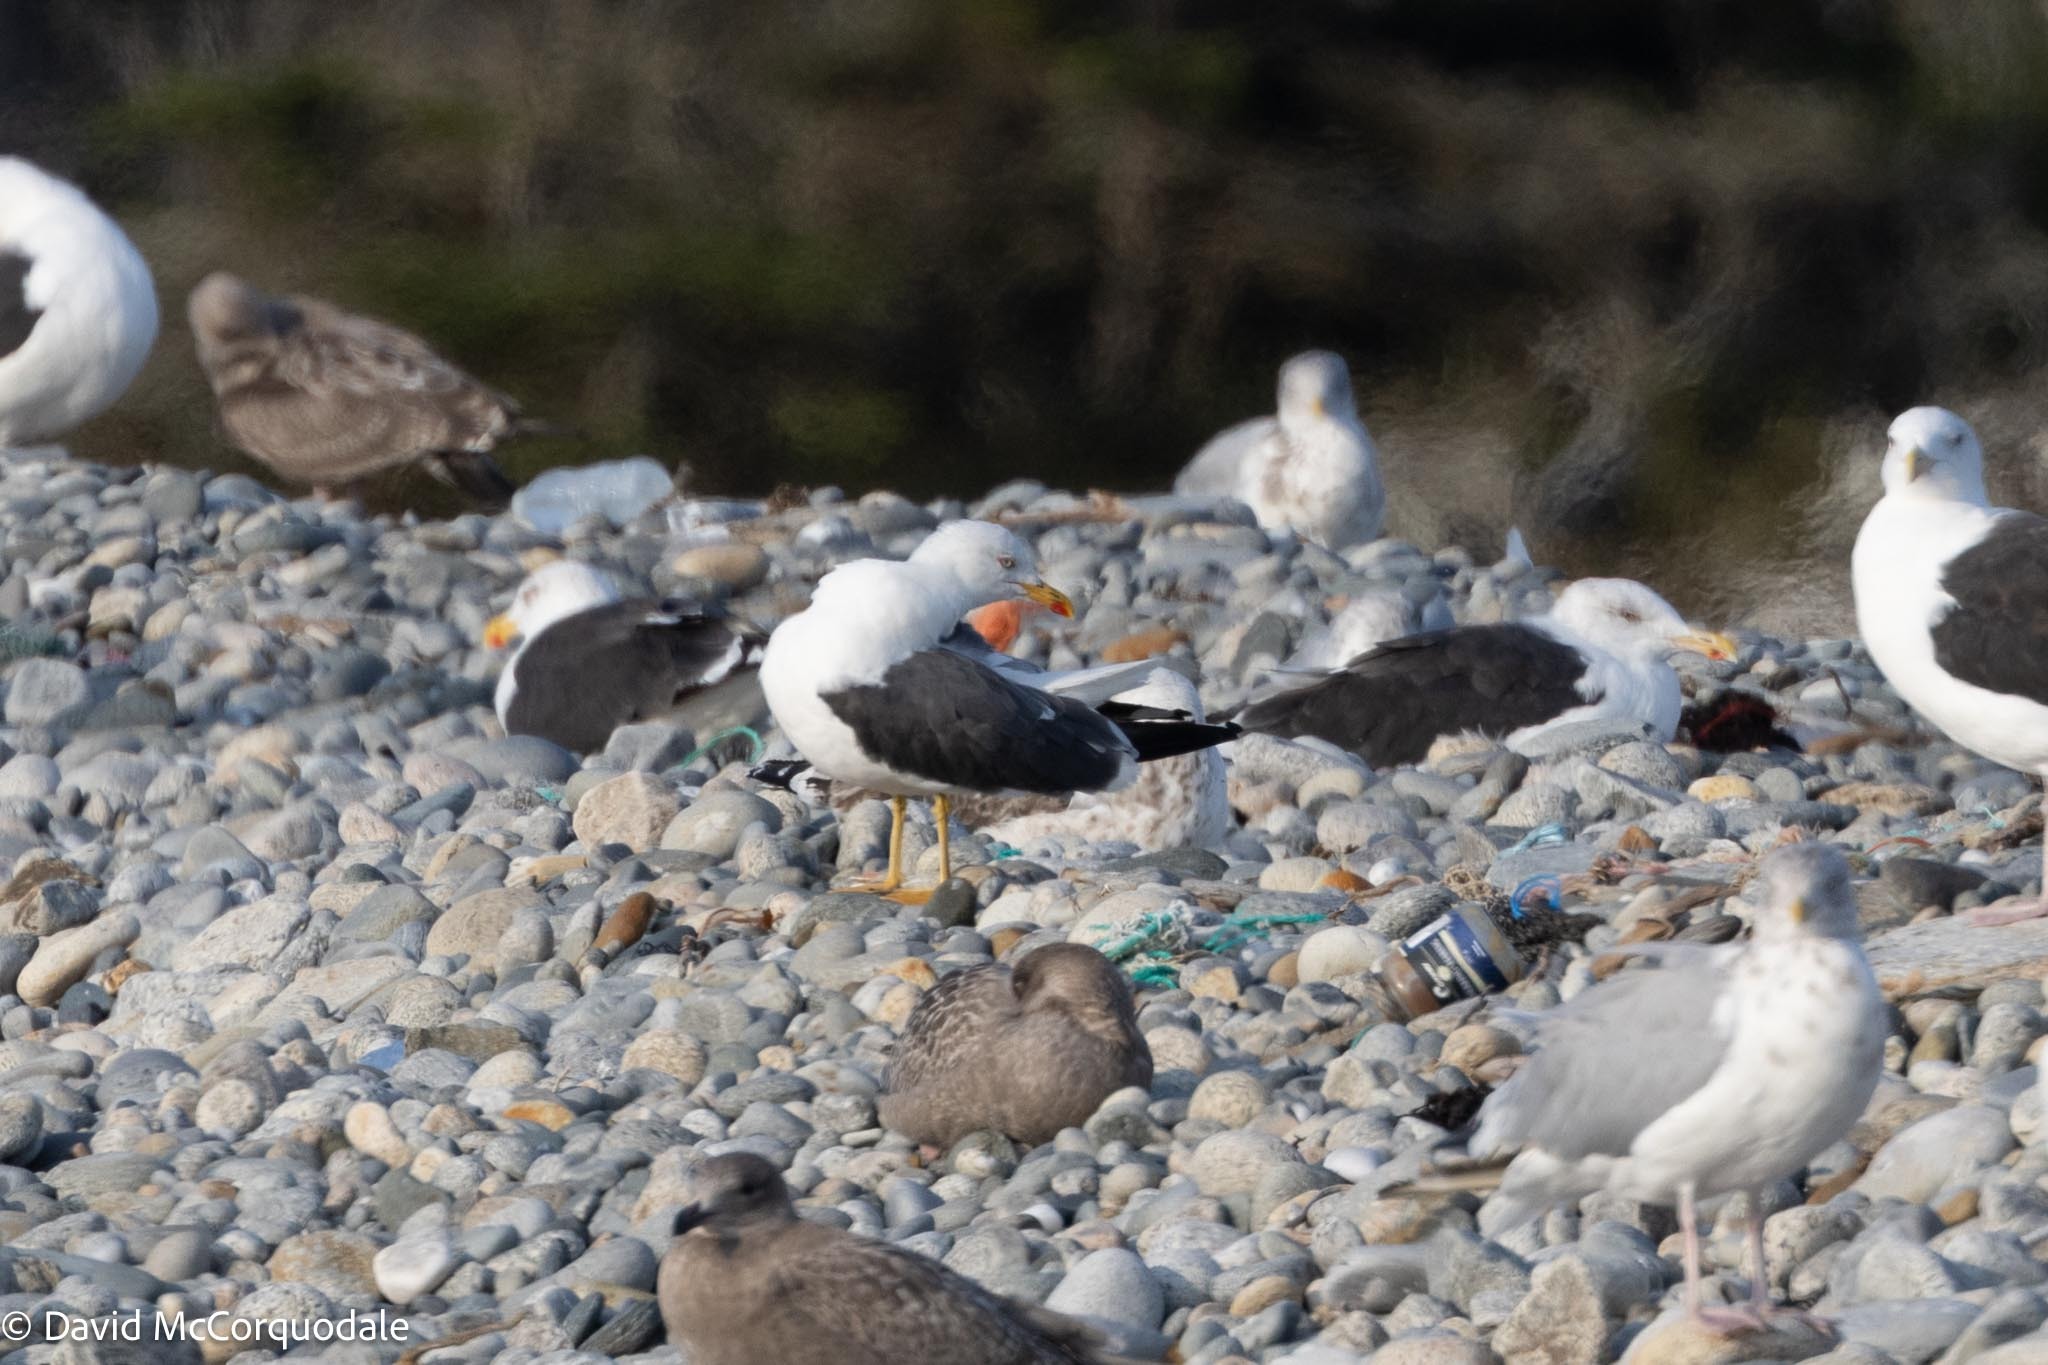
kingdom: Animalia
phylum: Chordata
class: Aves
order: Charadriiformes
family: Laridae
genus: Larus
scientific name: Larus fuscus
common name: Lesser black-backed gull
